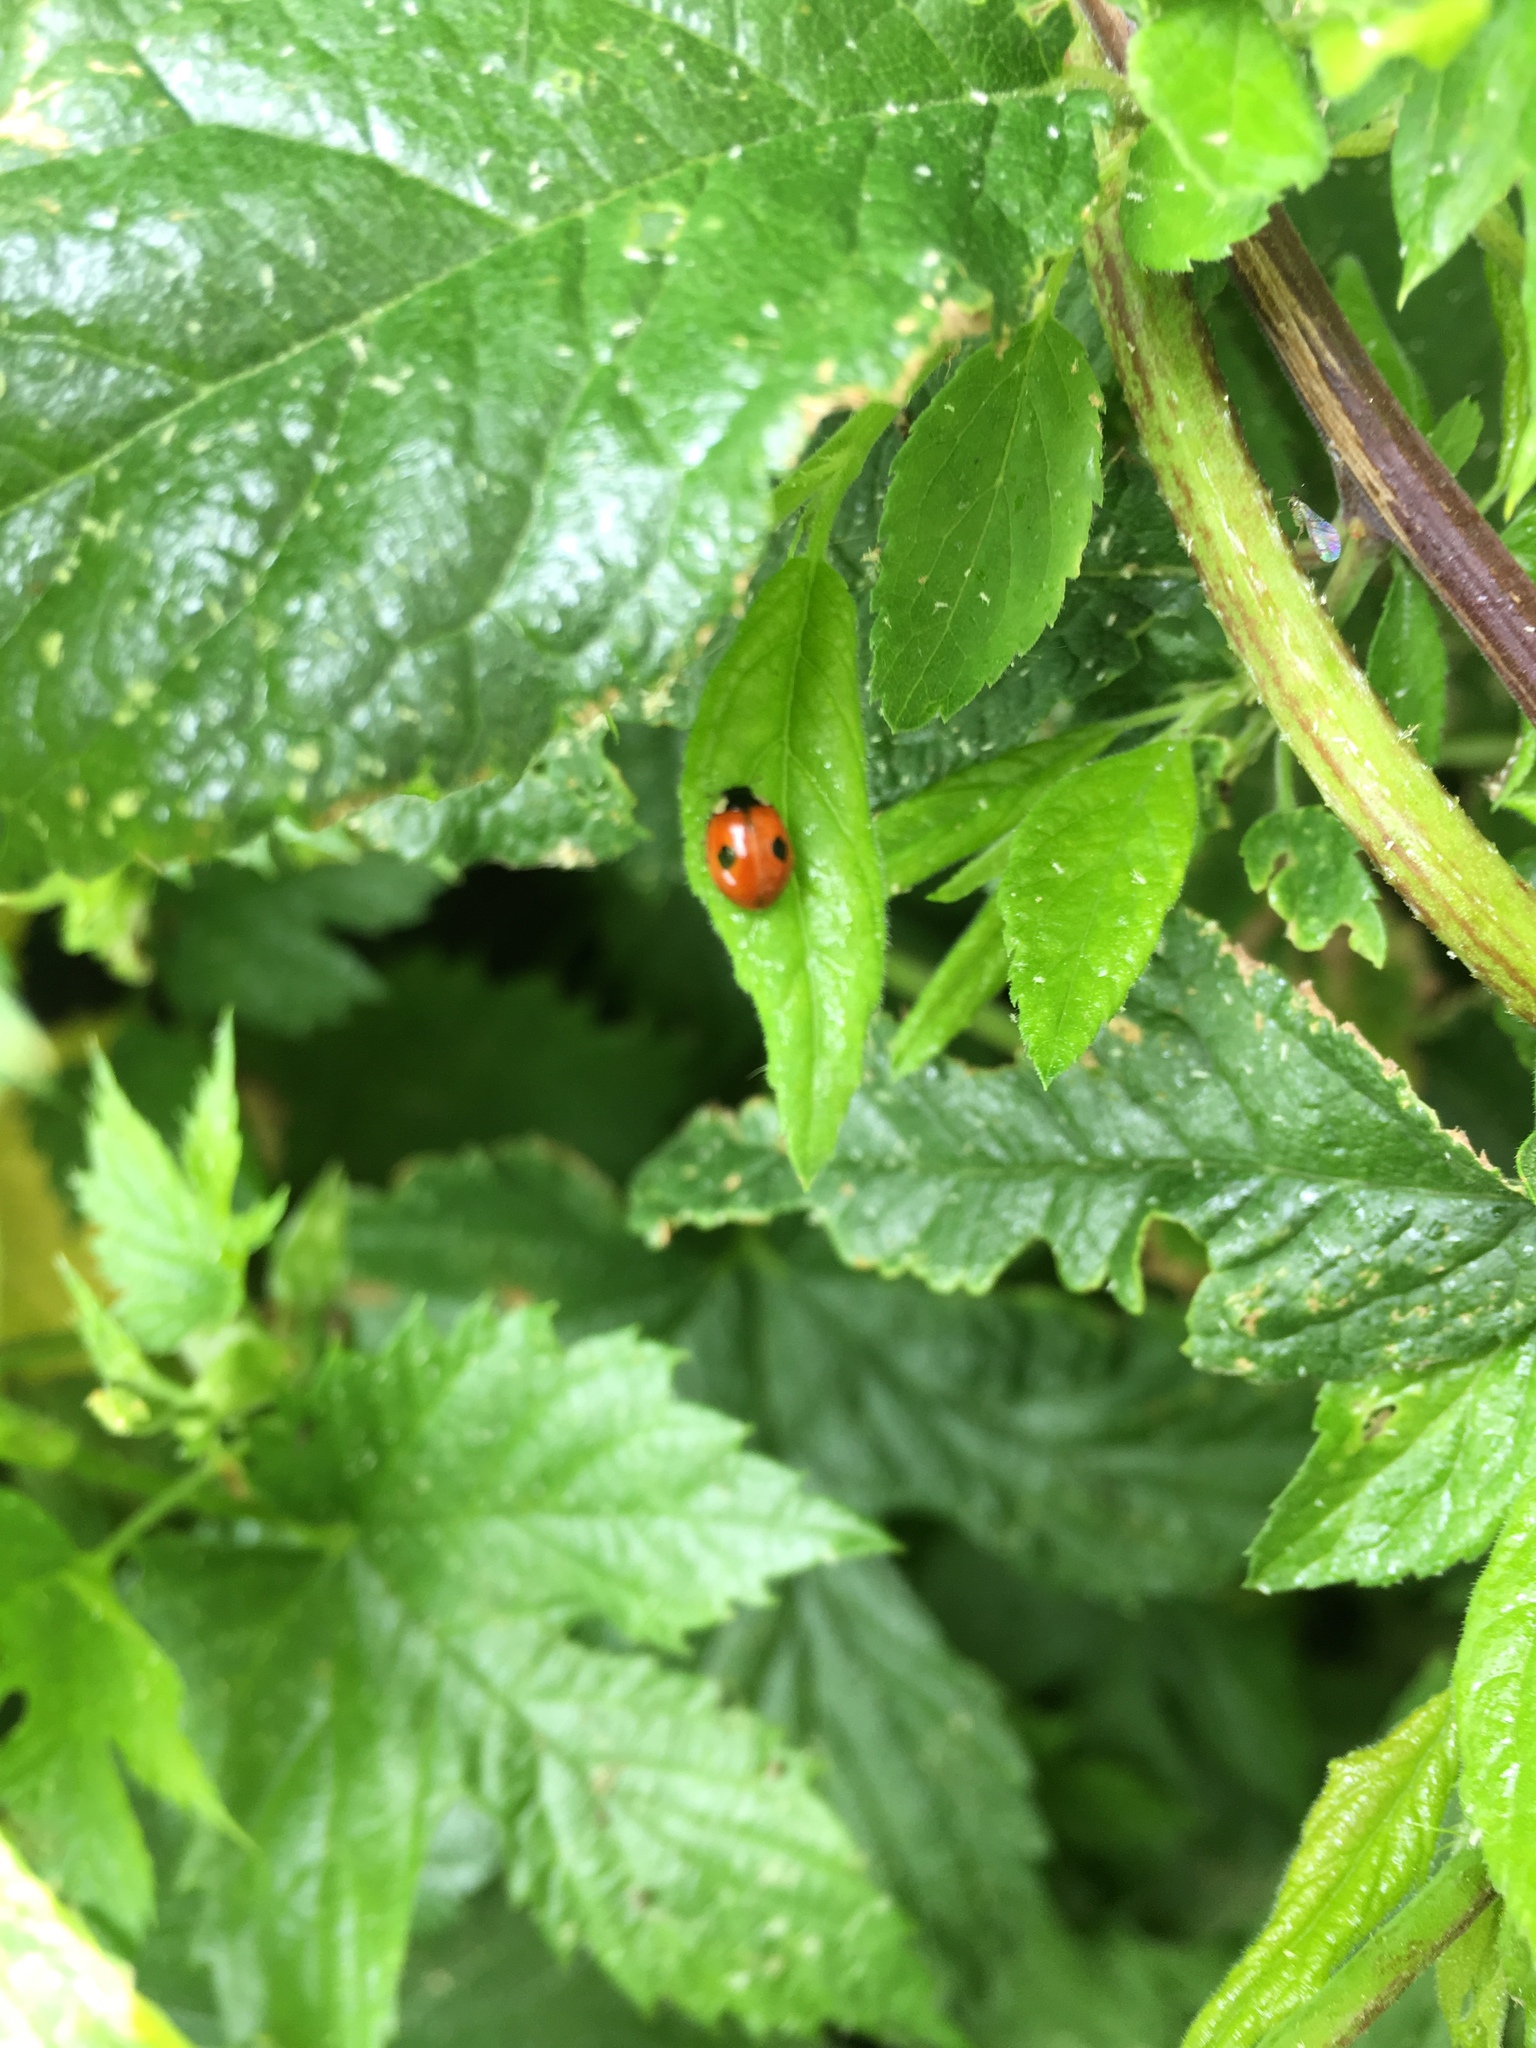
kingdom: Animalia
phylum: Arthropoda
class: Insecta
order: Coleoptera
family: Coccinellidae
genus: Adalia
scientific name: Adalia bipunctata
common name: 2-spot ladybird
